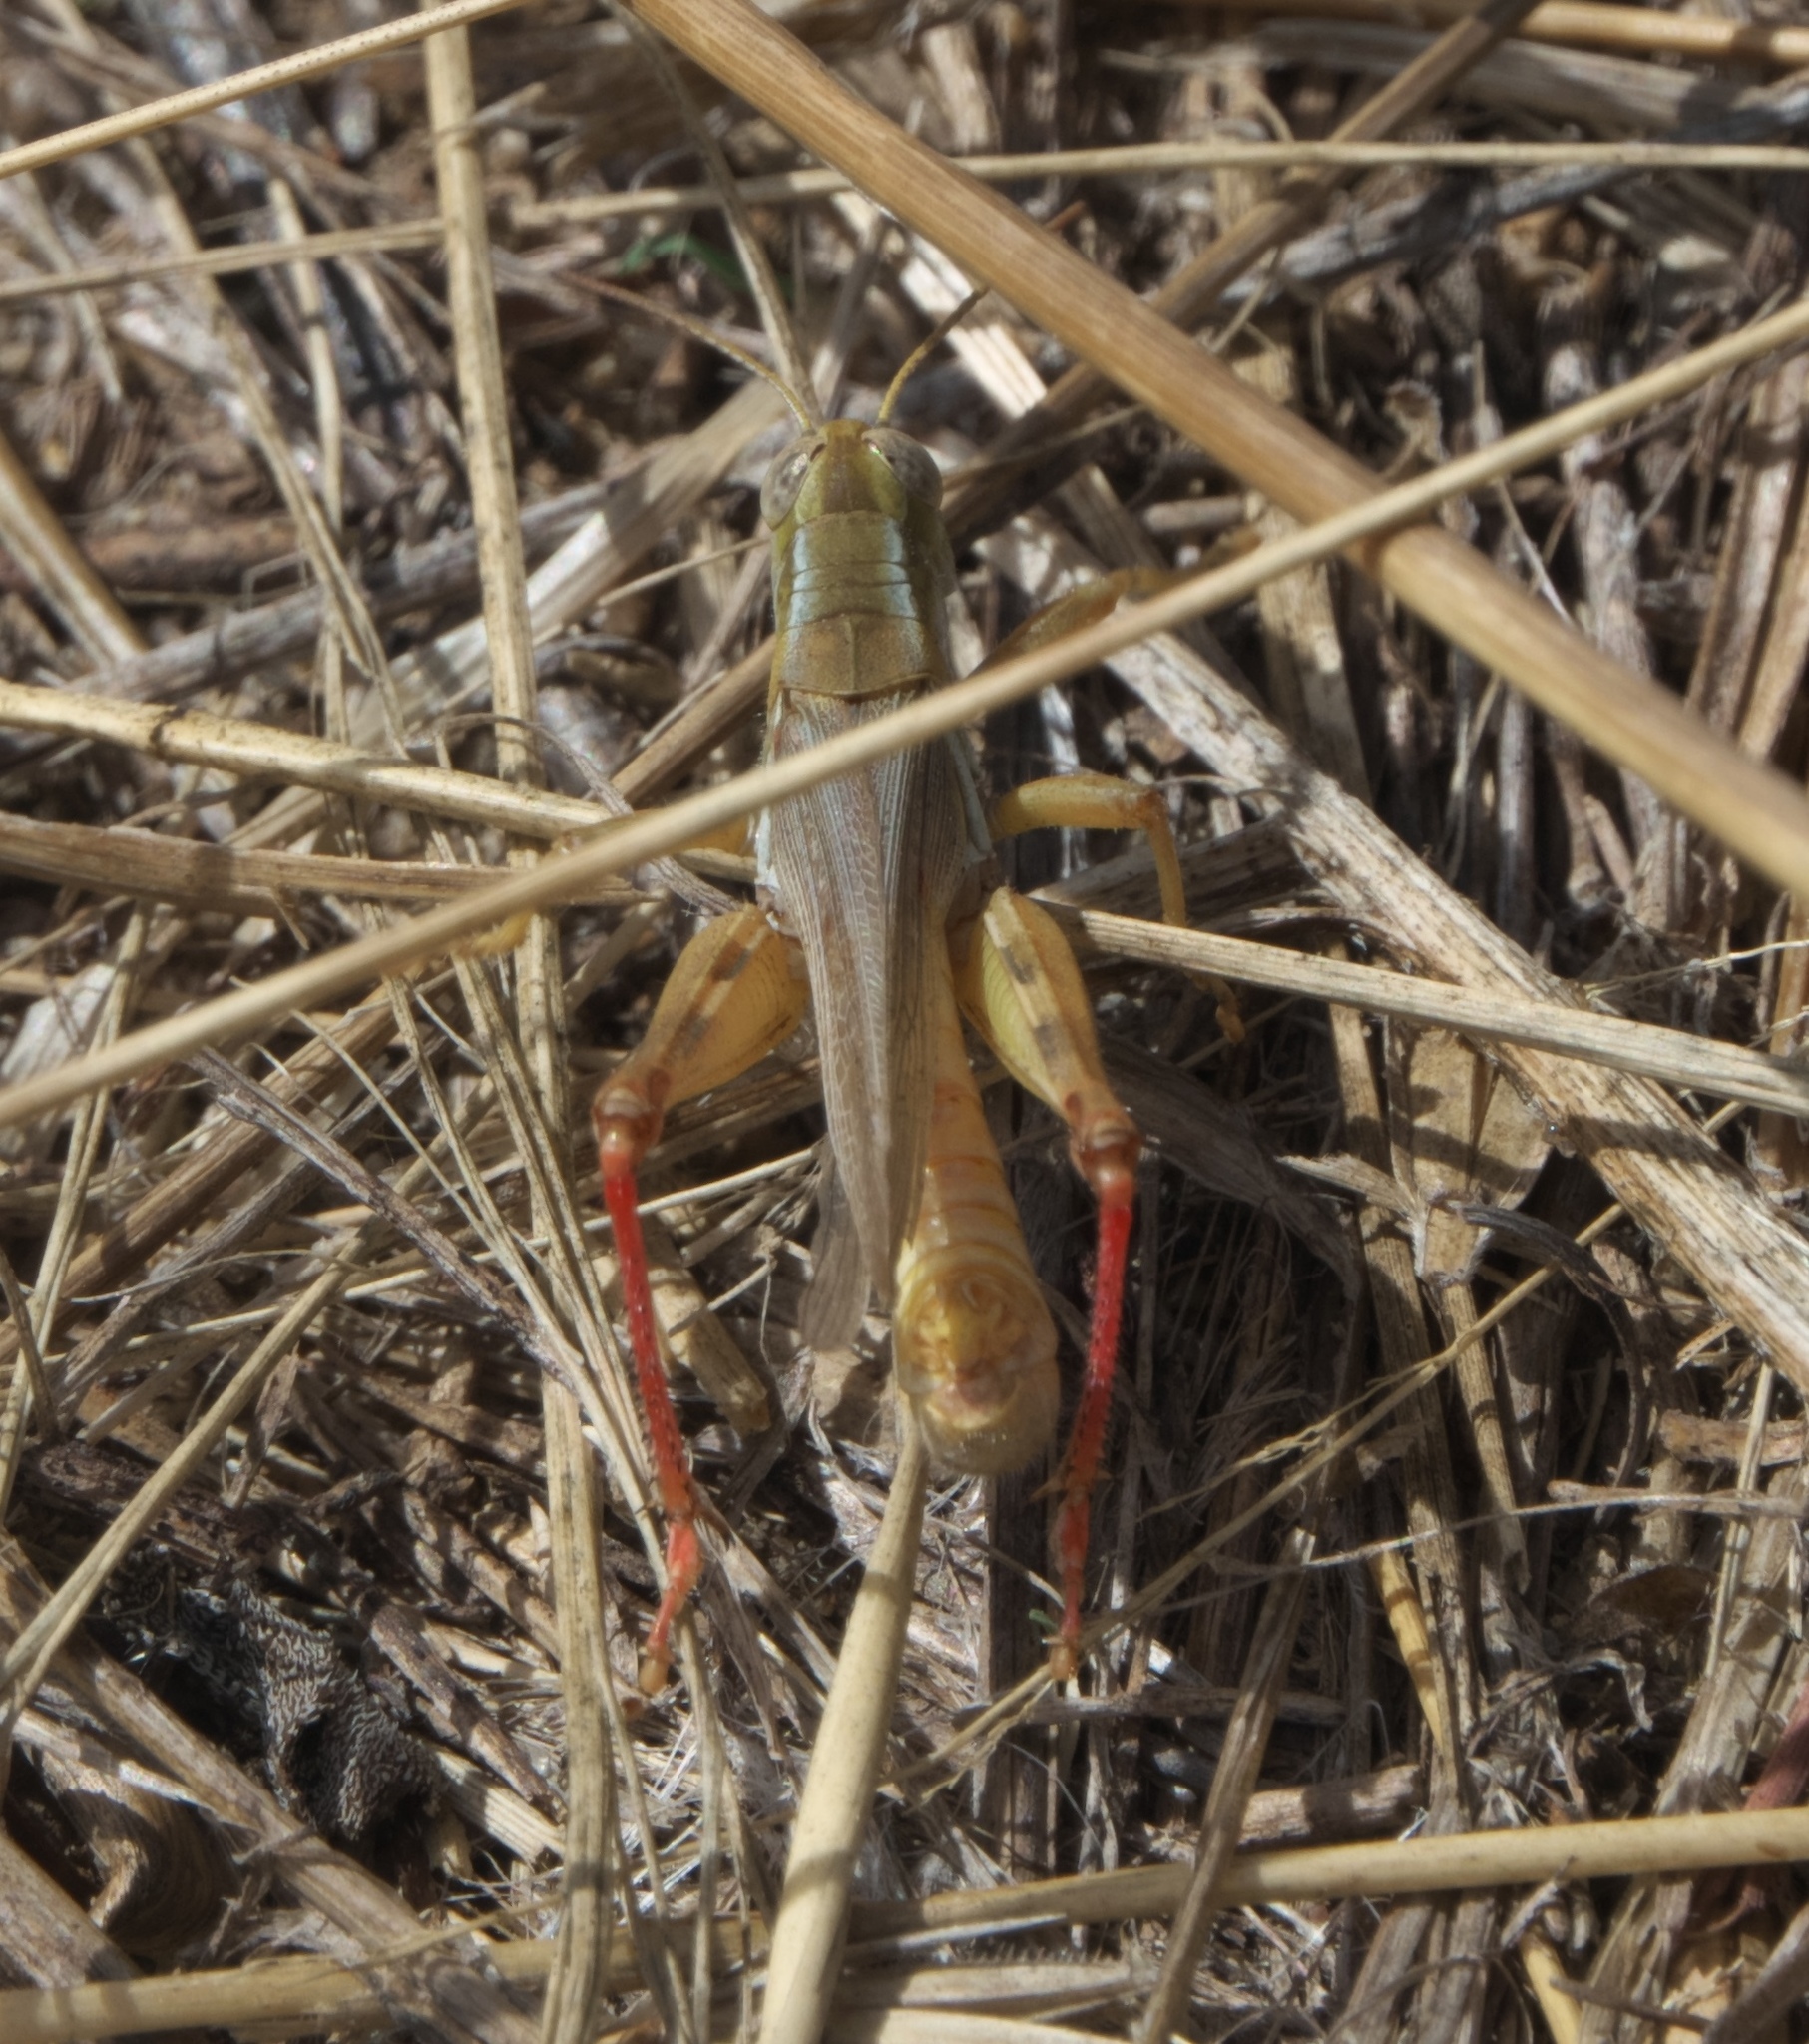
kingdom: Animalia
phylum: Arthropoda
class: Insecta
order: Orthoptera
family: Acrididae
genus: Melanoplus
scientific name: Melanoplus angustipennis
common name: Narrow-winged locust
